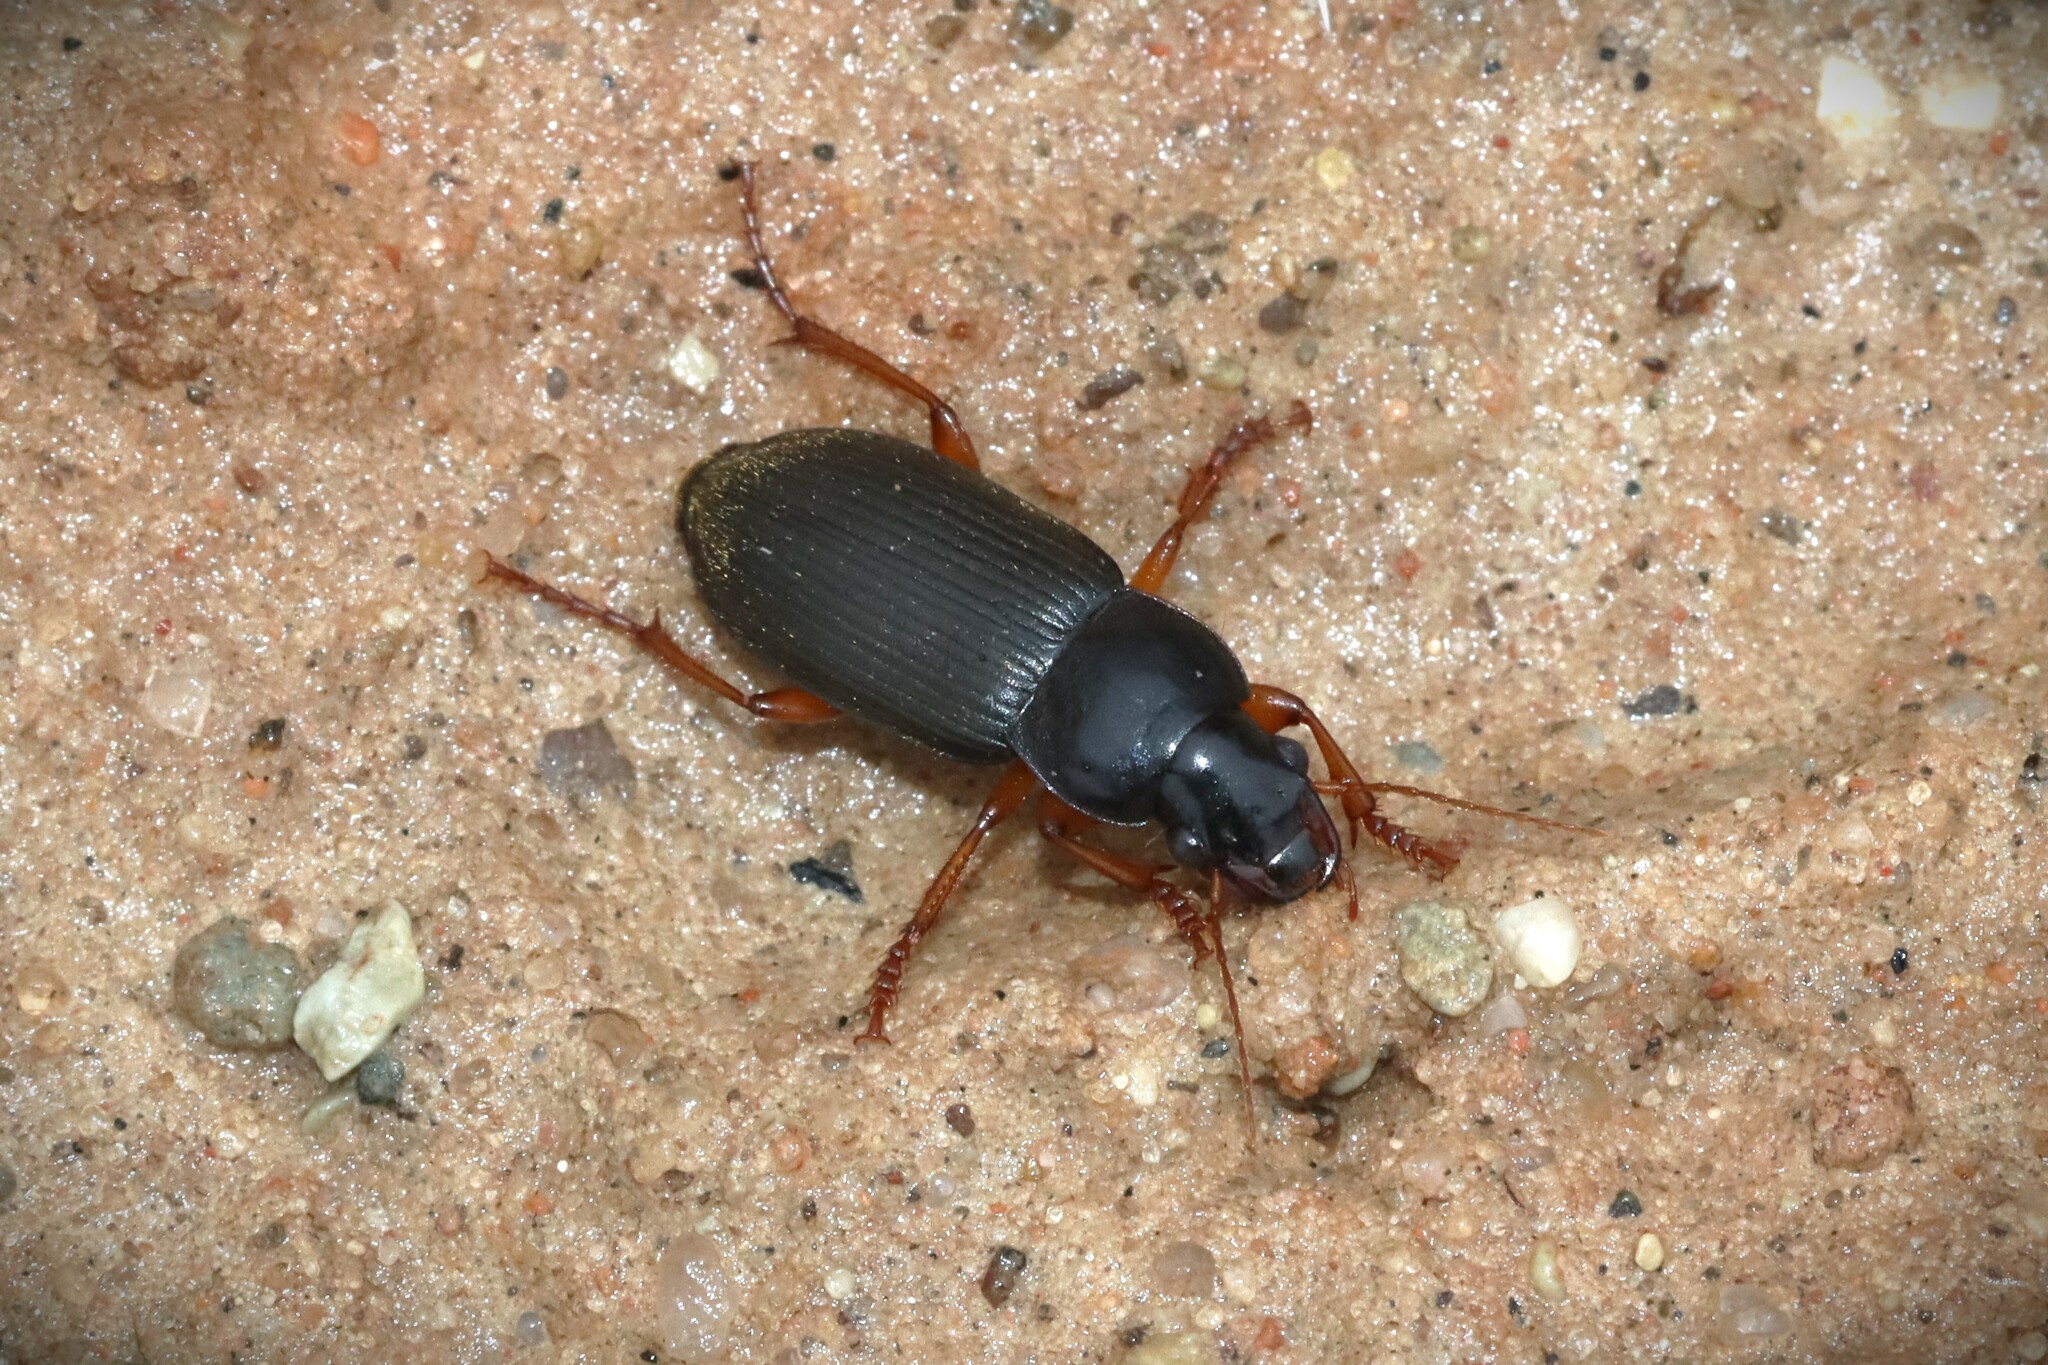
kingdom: Animalia
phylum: Arthropoda
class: Insecta
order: Coleoptera
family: Carabidae
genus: Harpalus
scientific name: Harpalus rufipes
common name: Strawberry harp ground beetle
